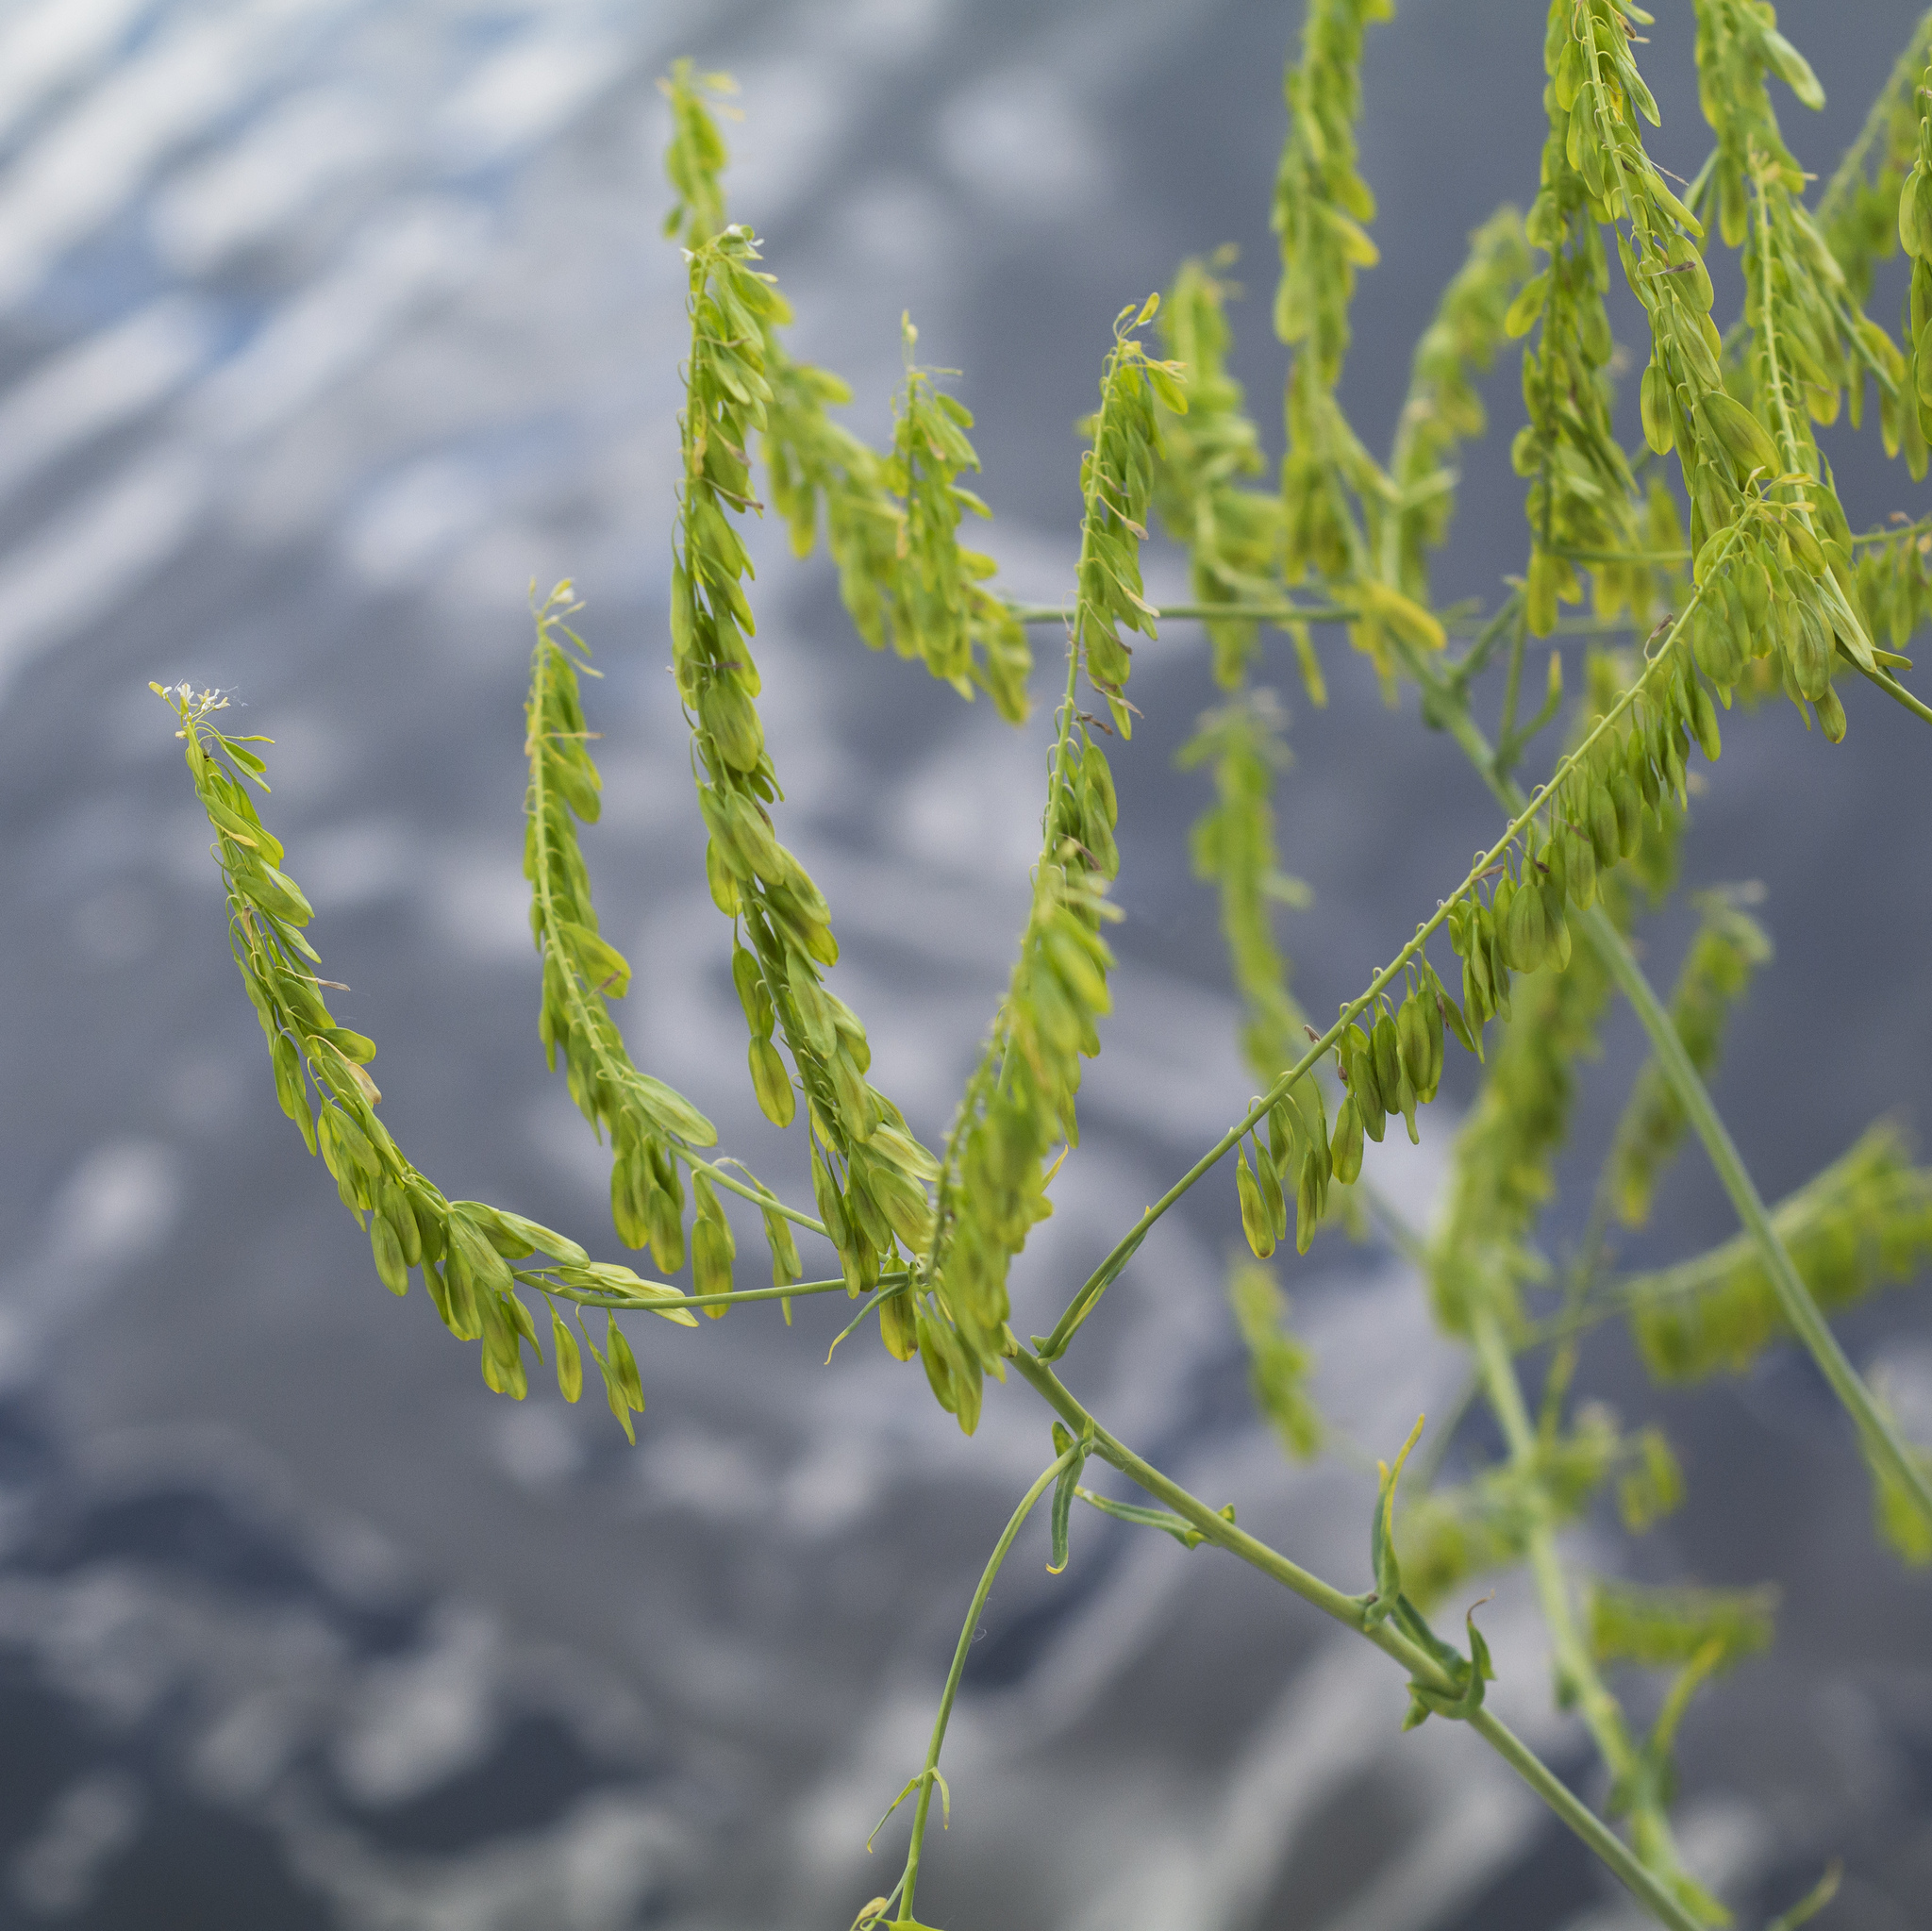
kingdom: Plantae
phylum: Tracheophyta
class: Magnoliopsida
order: Brassicales
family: Brassicaceae
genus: Isatis
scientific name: Isatis tinctoria
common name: Woad
